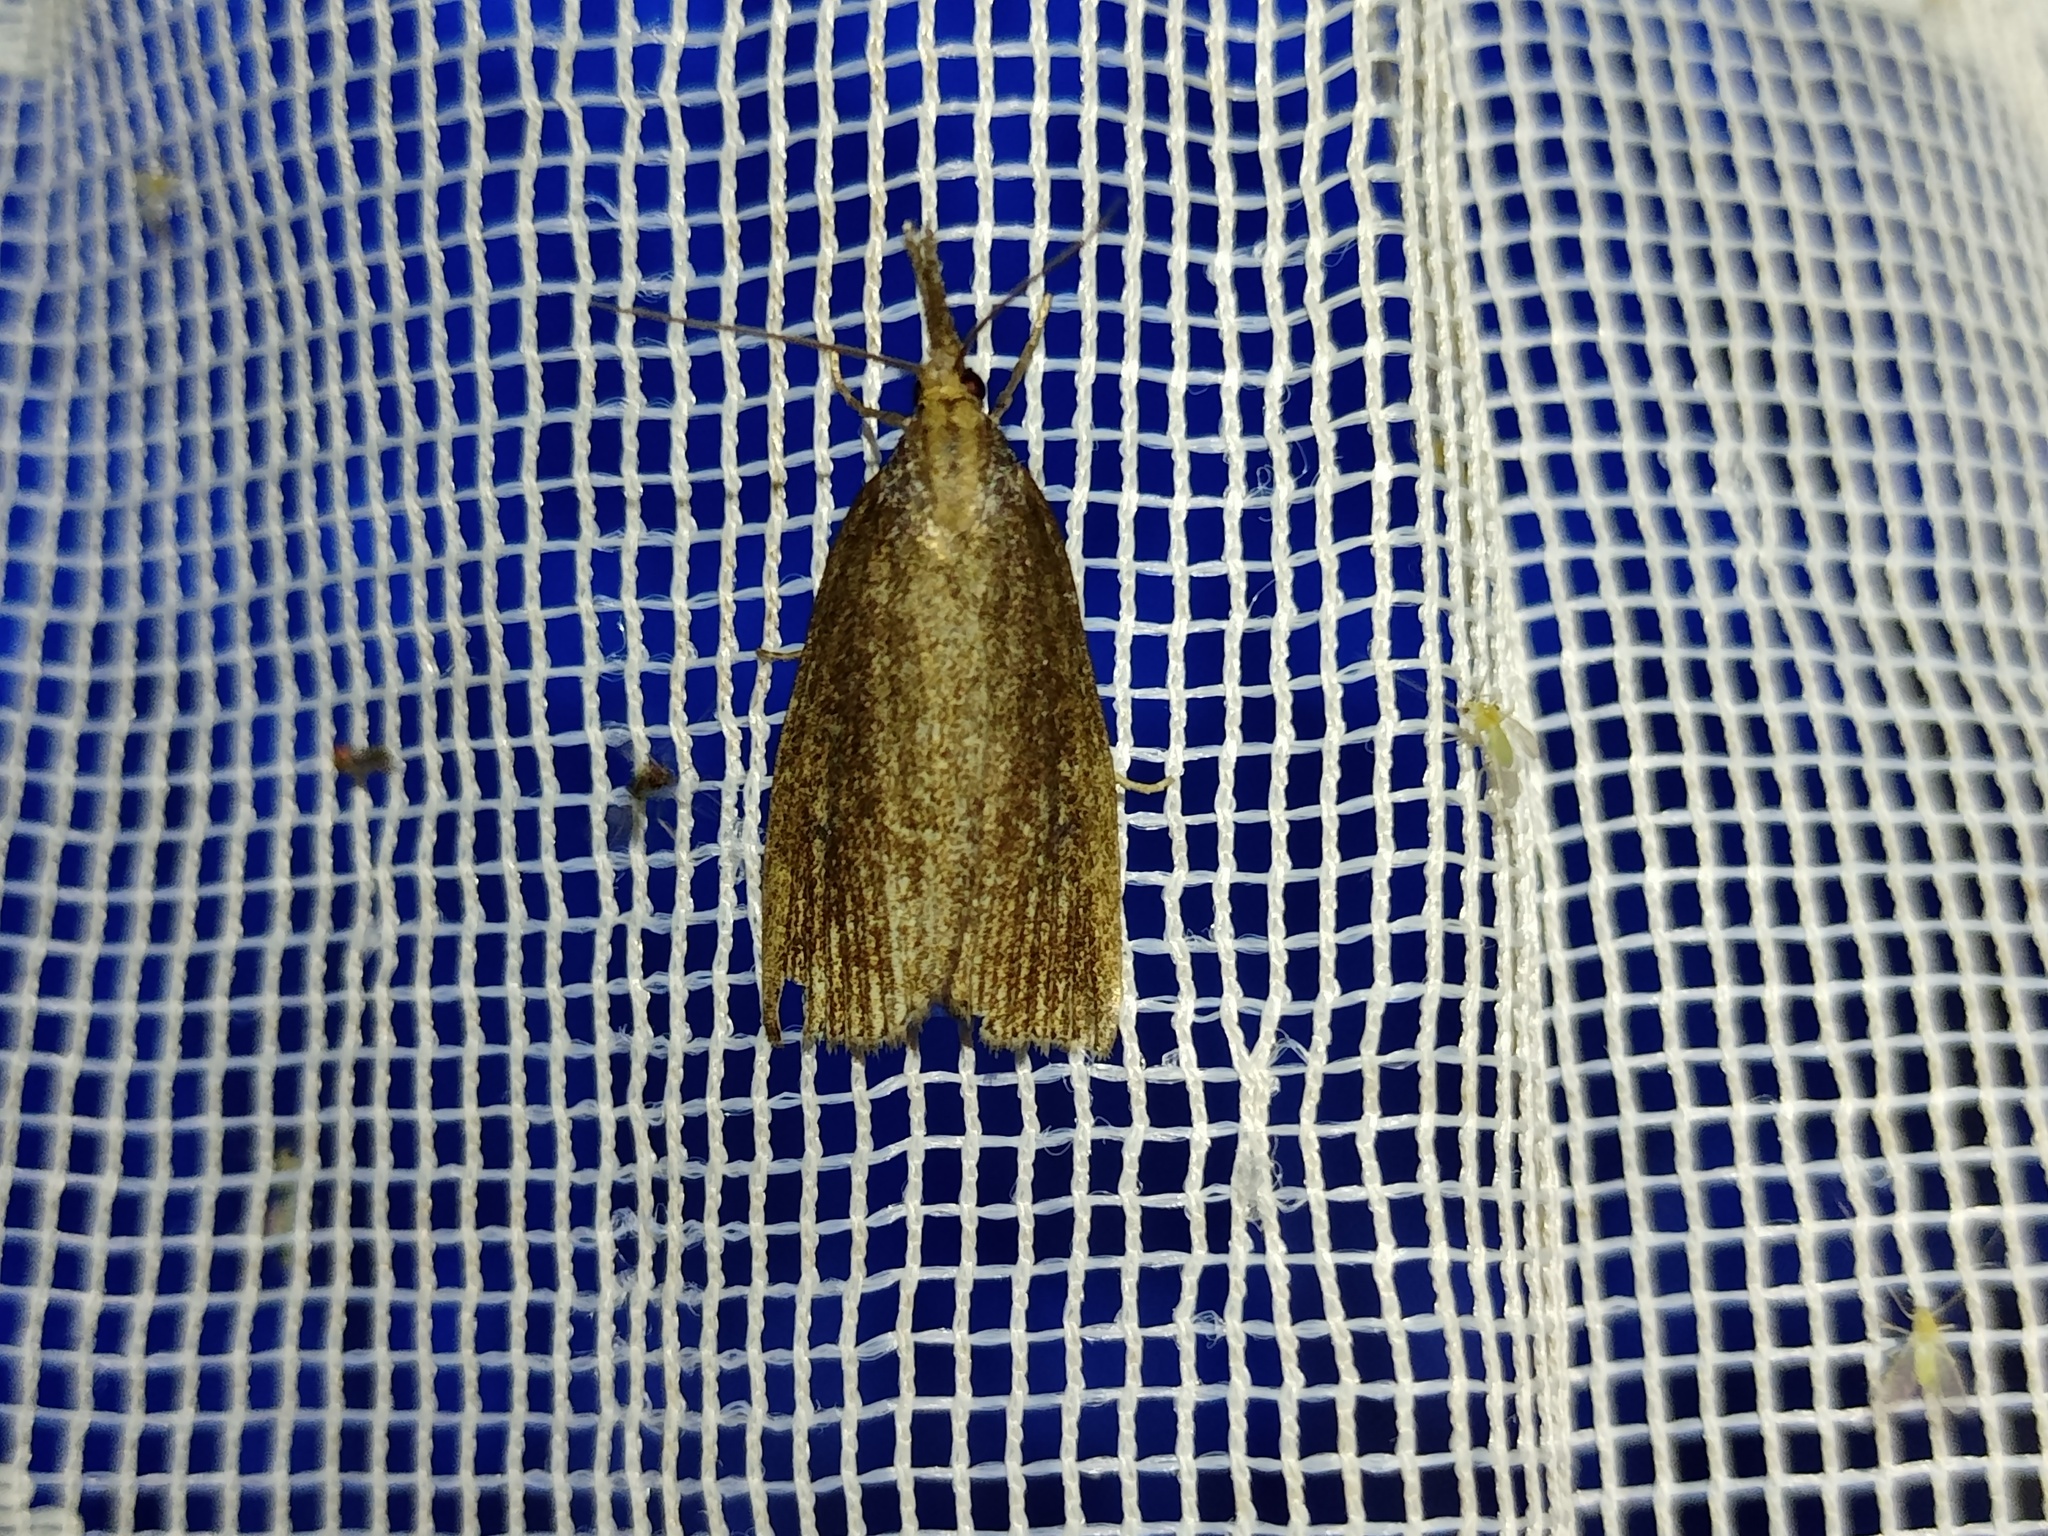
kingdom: Animalia
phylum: Arthropoda
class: Insecta
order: Lepidoptera
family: Crambidae
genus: Chilo
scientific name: Chilo phragmitella
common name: Reed veneer
